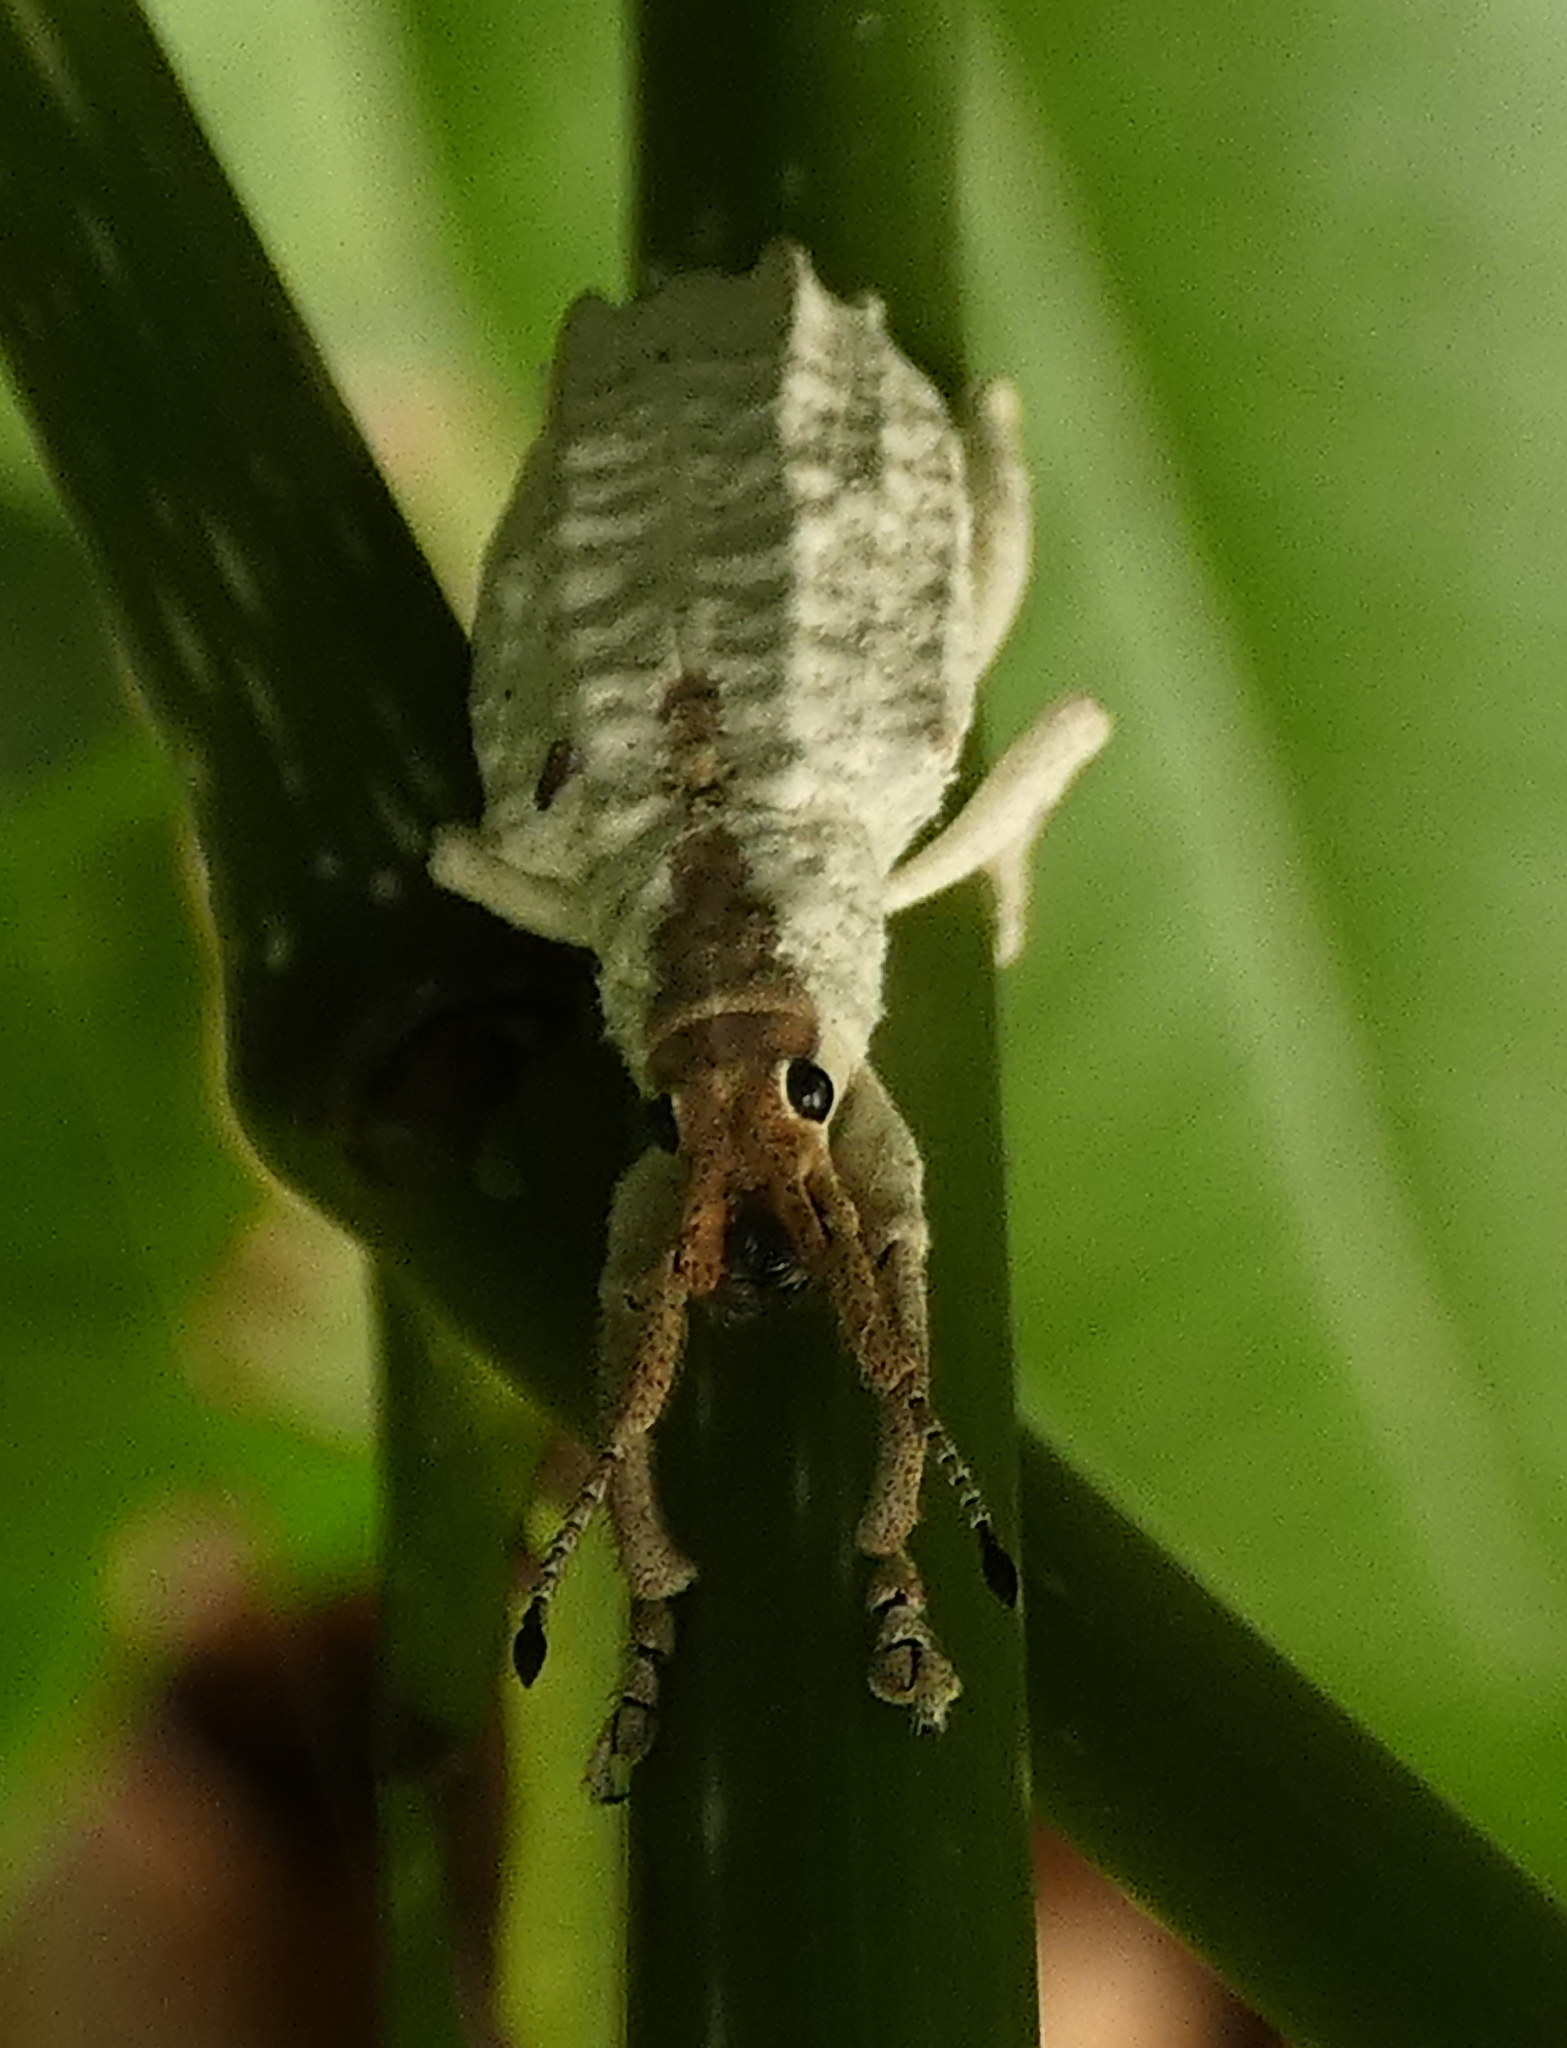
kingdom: Animalia
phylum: Arthropoda
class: Insecta
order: Coleoptera
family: Curculionidae
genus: Compsus
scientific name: Compsus niveus
